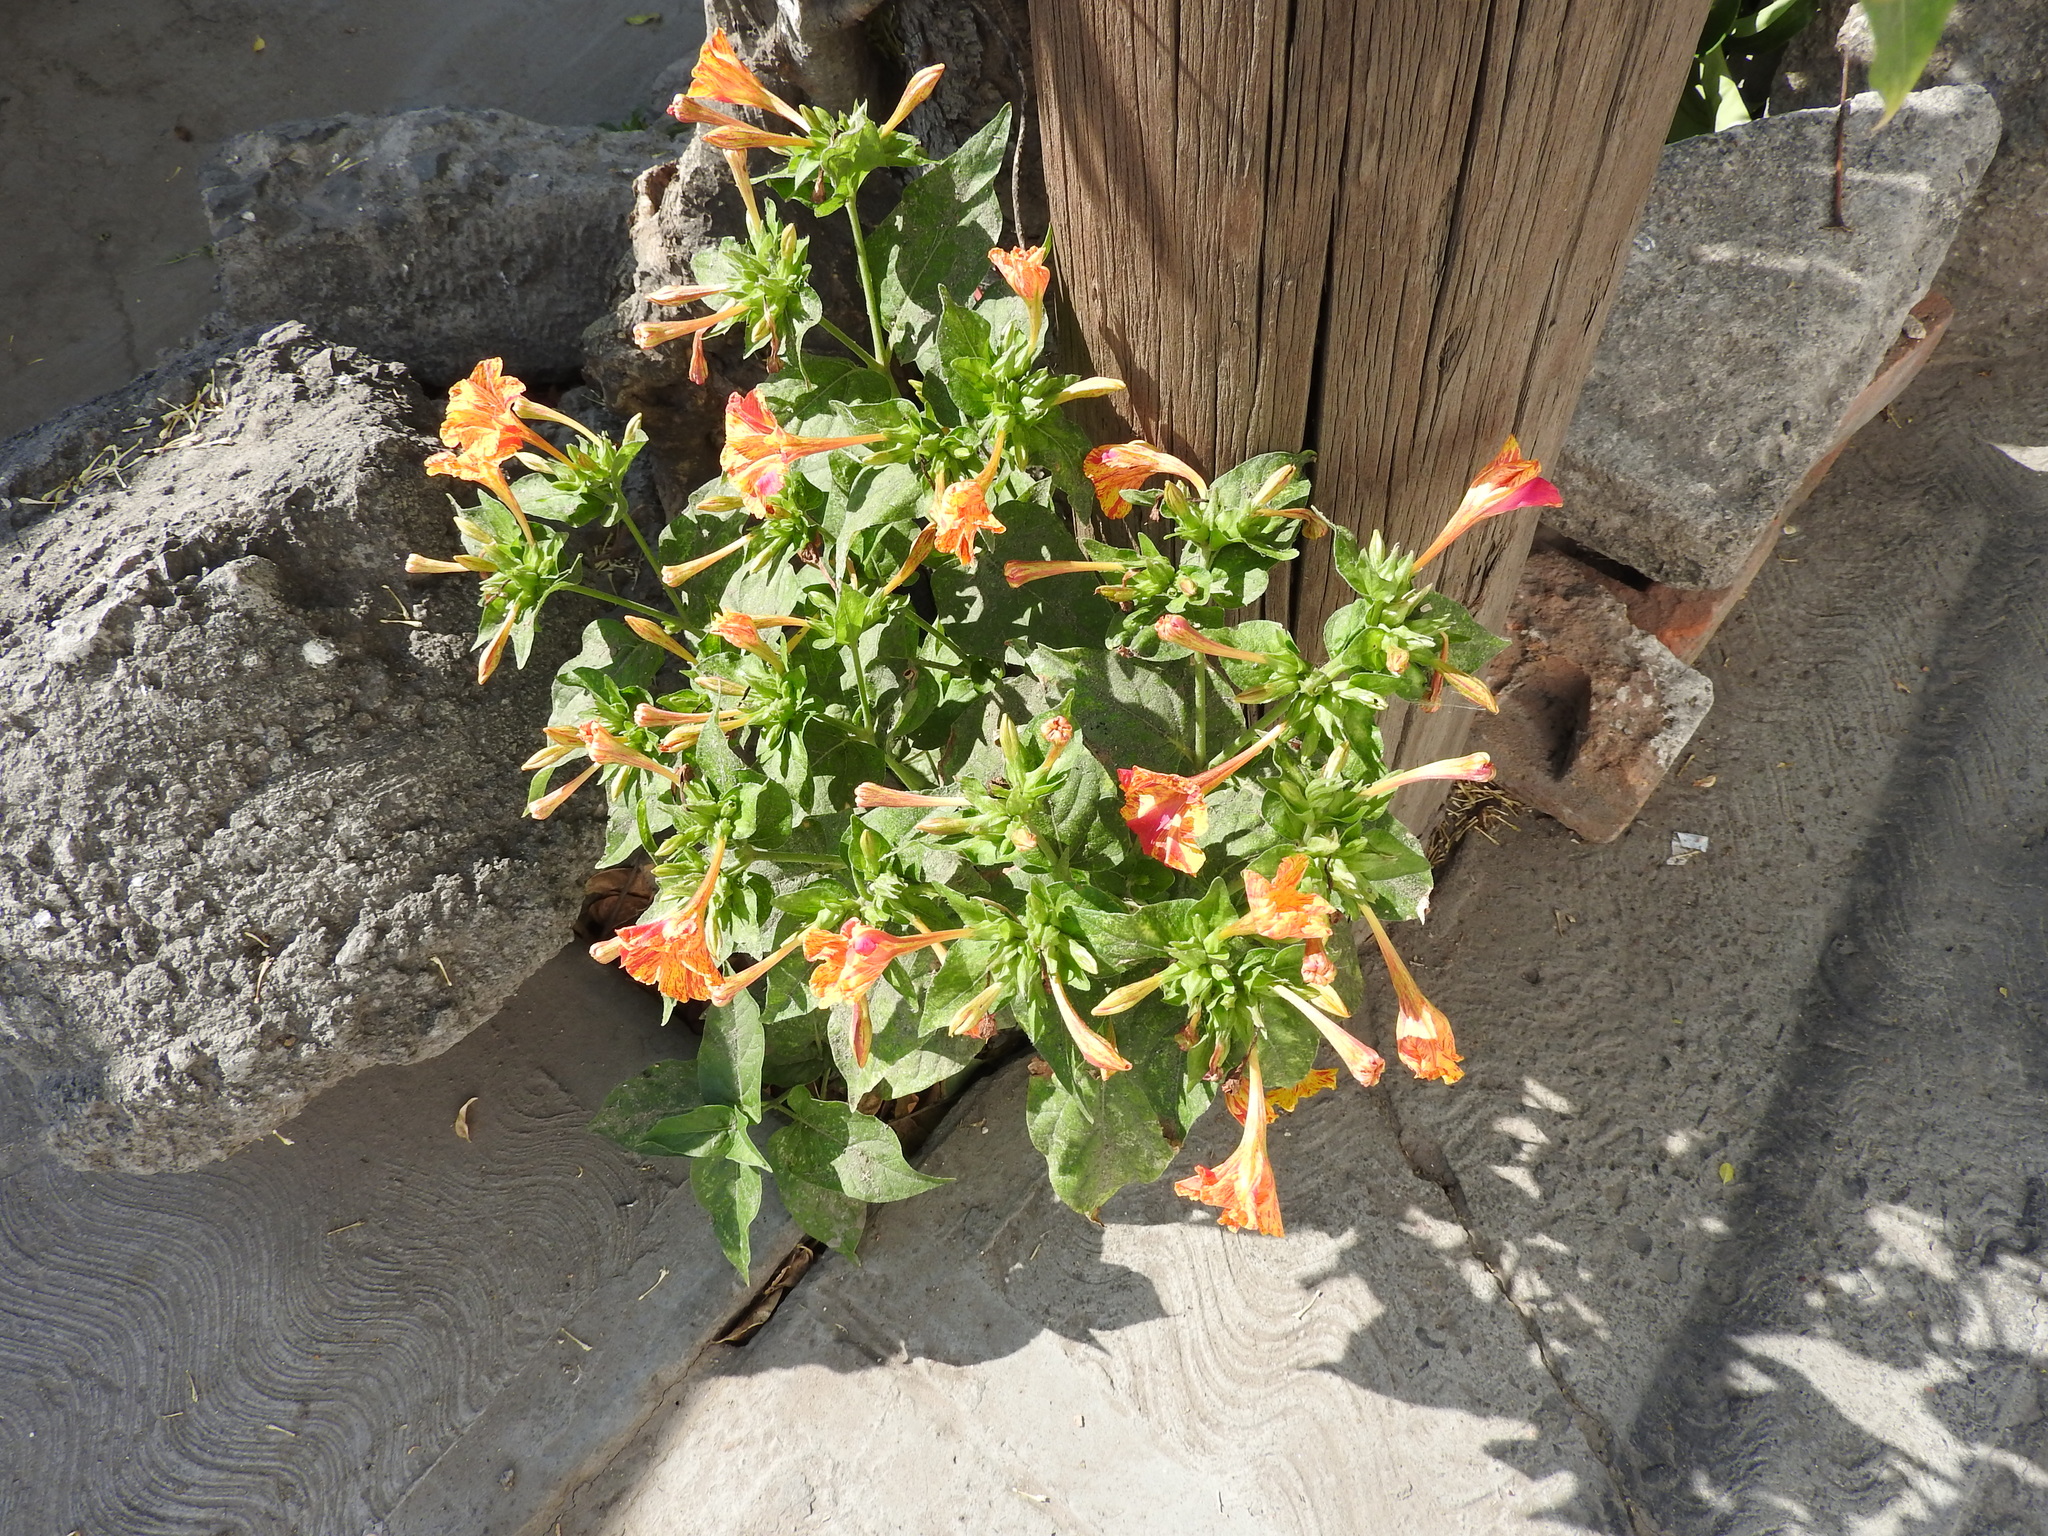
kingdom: Plantae
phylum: Tracheophyta
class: Magnoliopsida
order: Caryophyllales
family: Nyctaginaceae
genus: Mirabilis
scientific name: Mirabilis jalapa
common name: Marvel-of-peru
